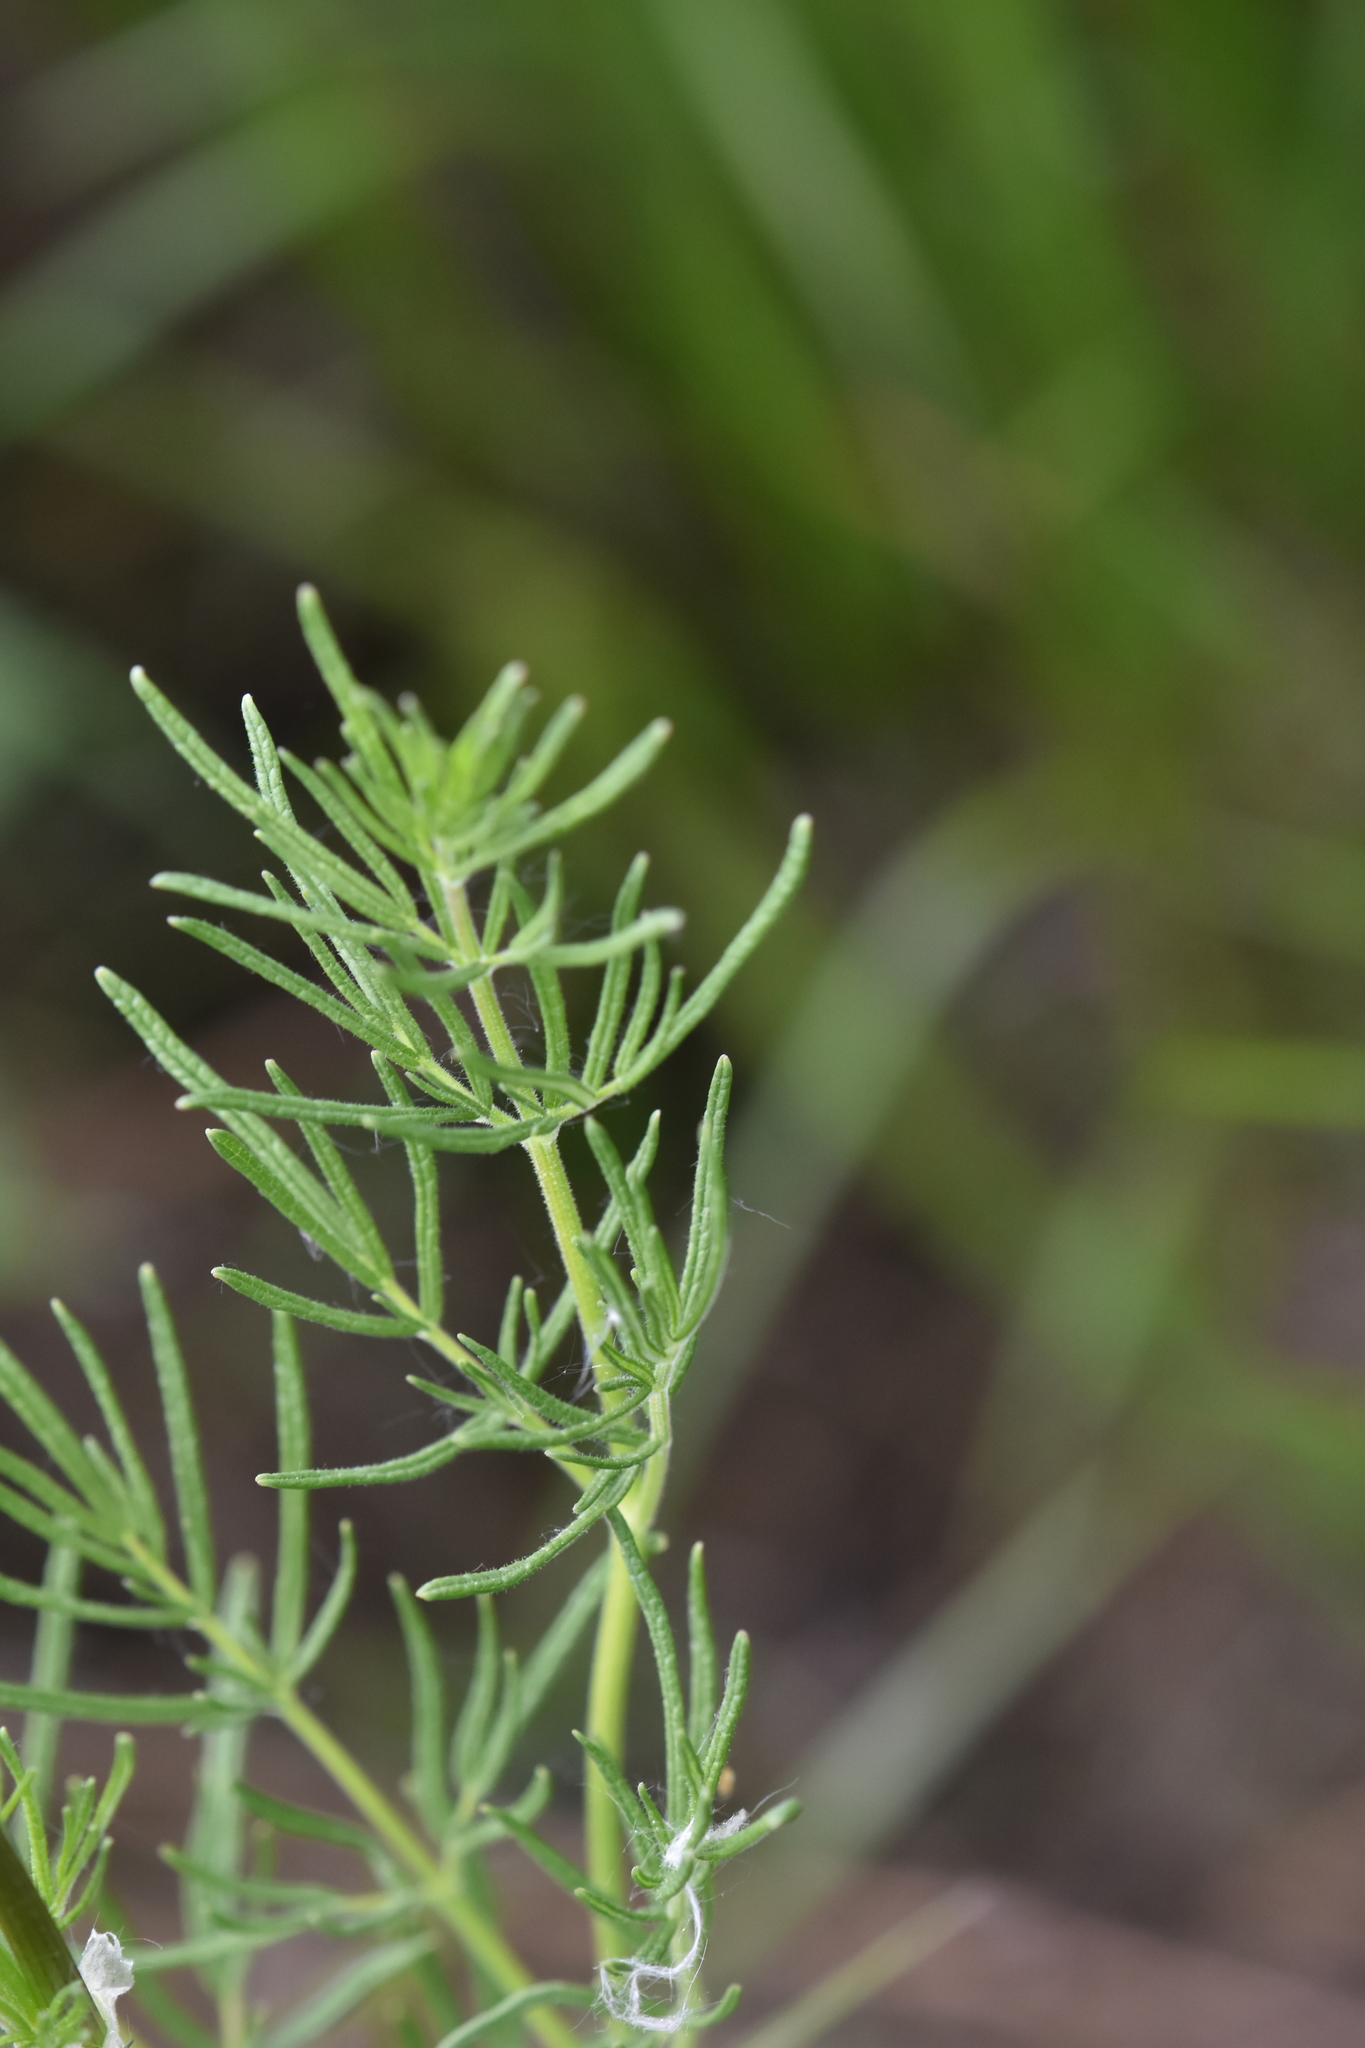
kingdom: Plantae
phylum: Tracheophyta
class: Magnoliopsida
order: Ranunculales
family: Ranunculaceae
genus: Thalictrum
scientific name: Thalictrum lucidum
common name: Shining meadow-rue
